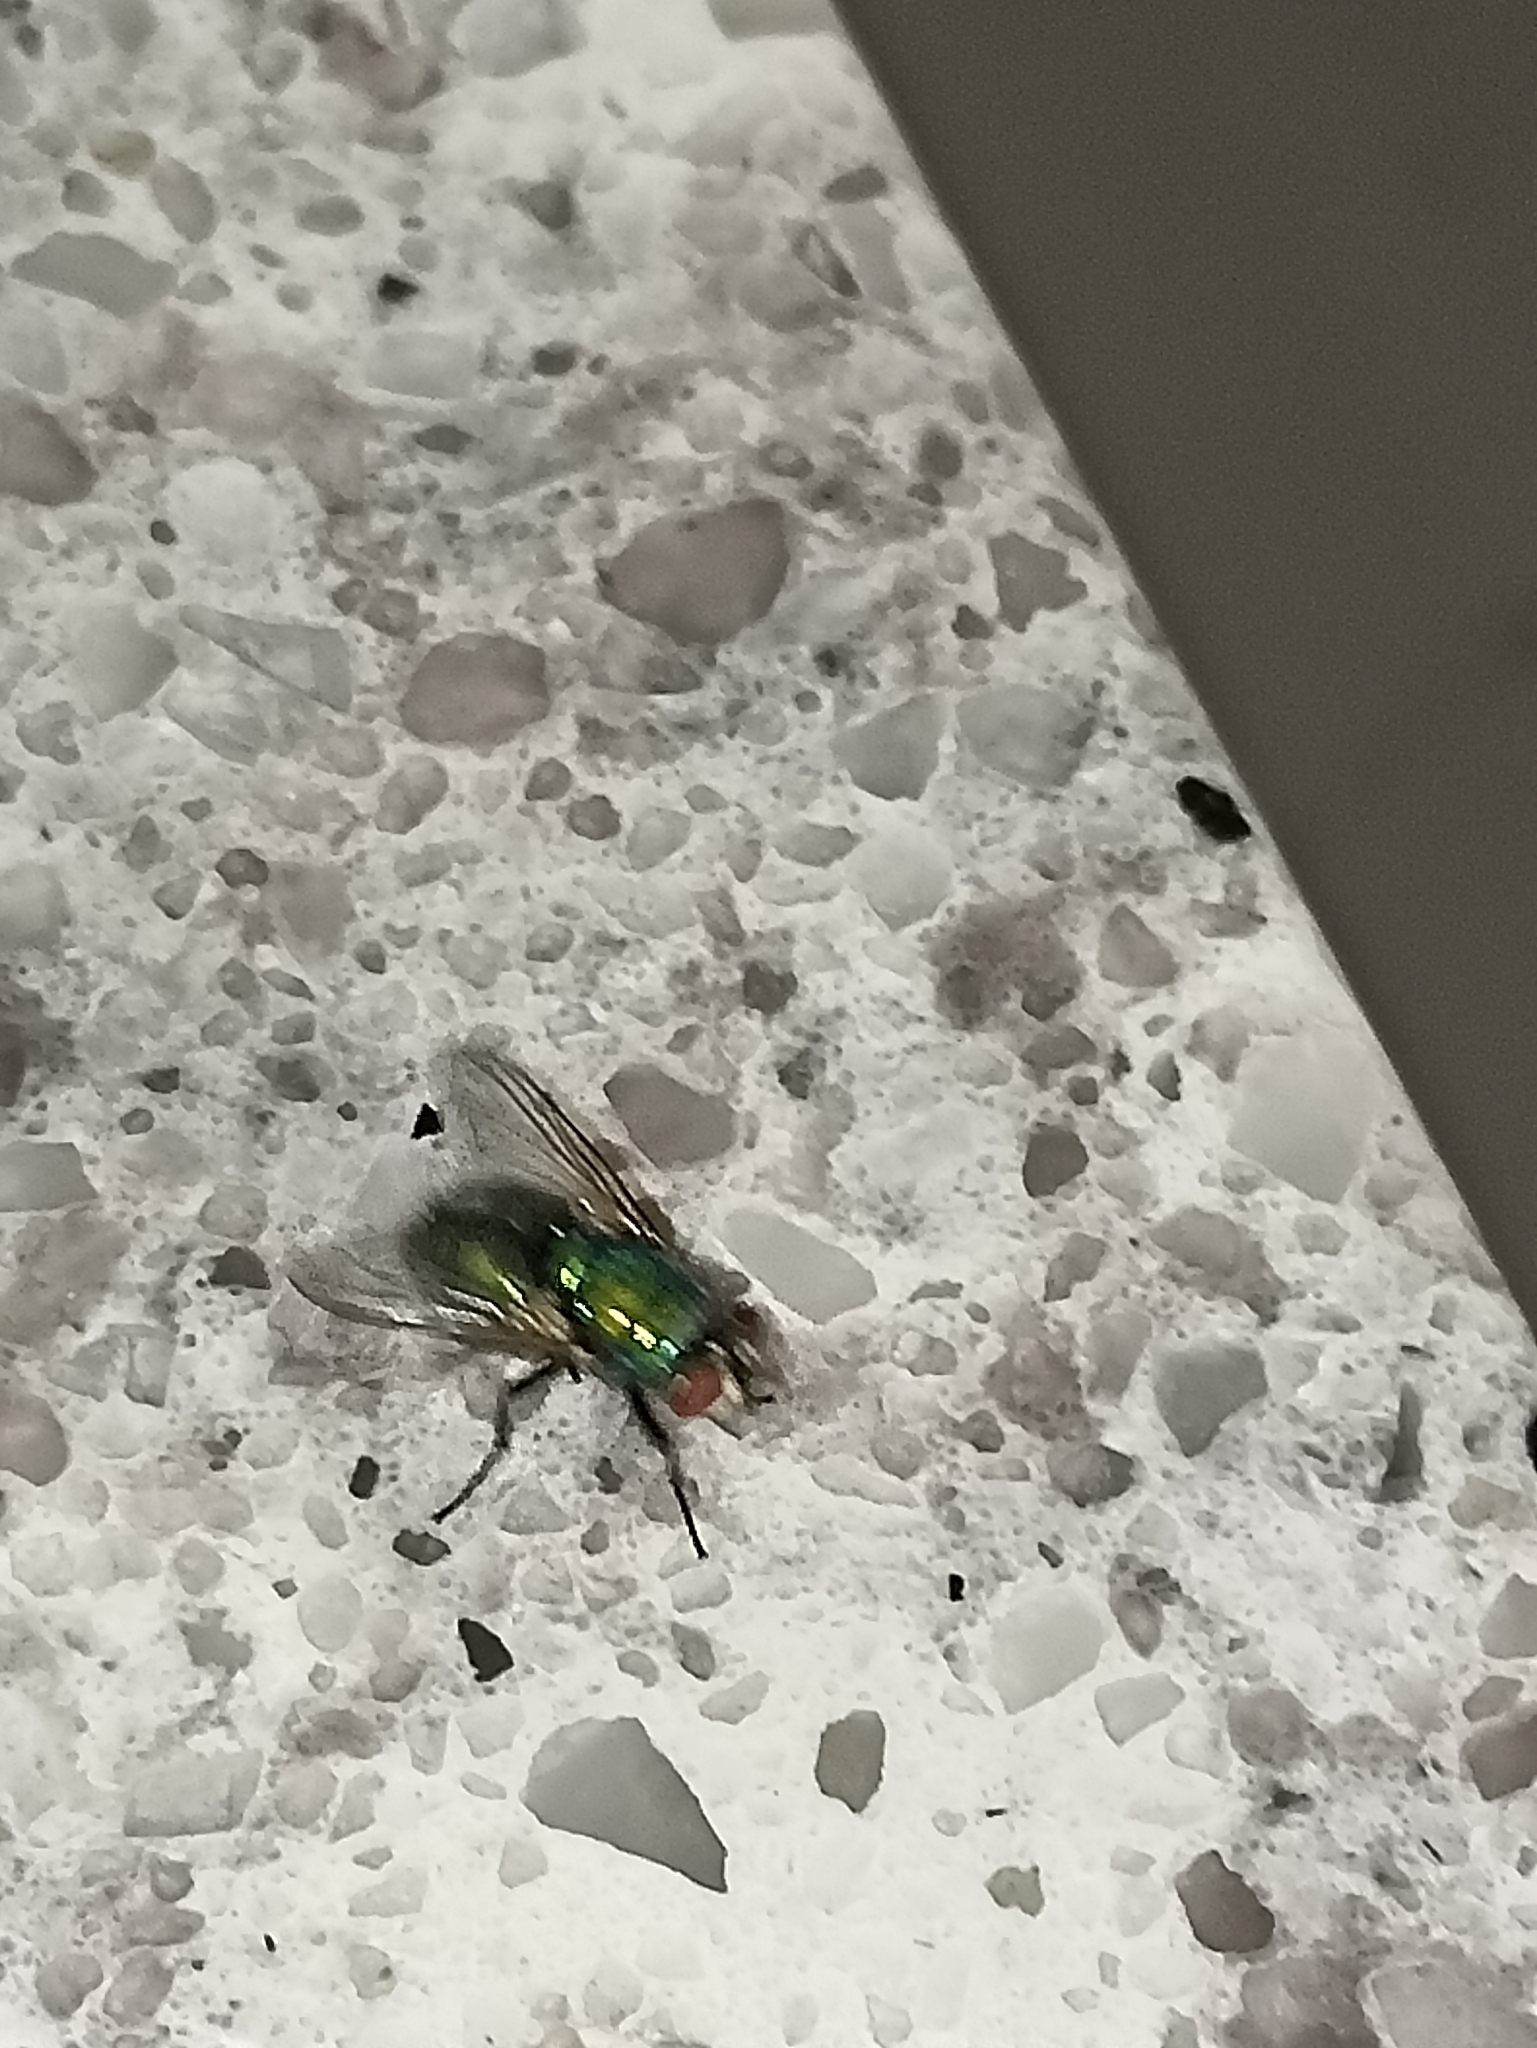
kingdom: Animalia
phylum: Arthropoda
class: Insecta
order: Diptera
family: Calliphoridae
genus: Lucilia
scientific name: Lucilia sericata
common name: Blow fly
